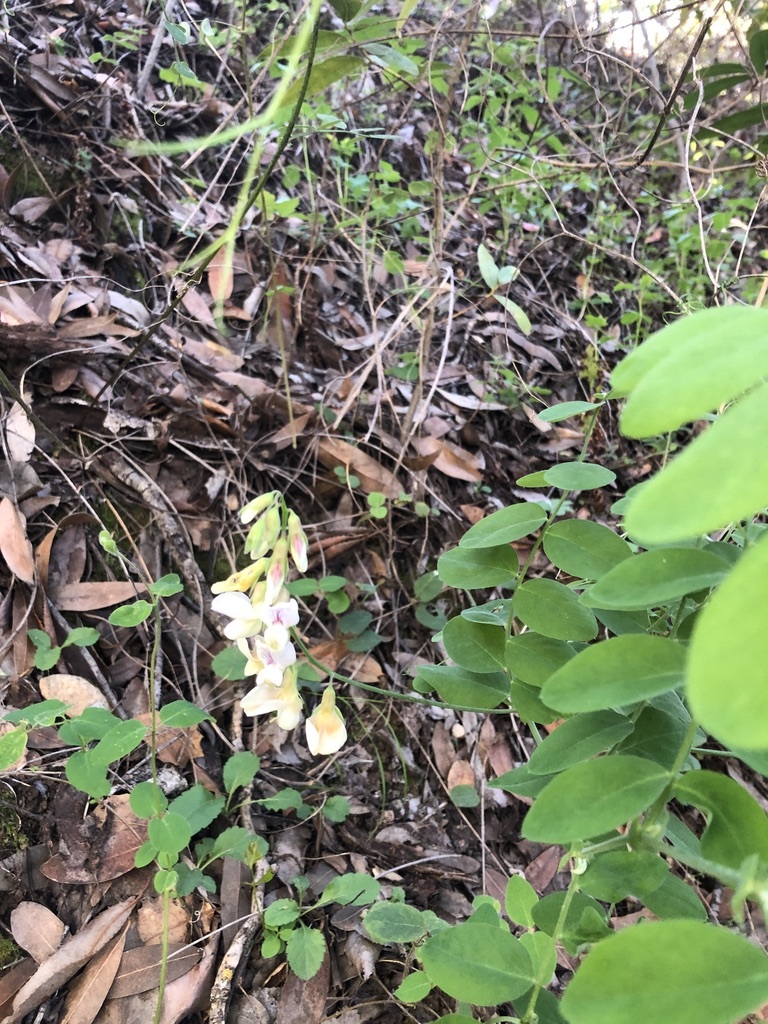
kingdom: Plantae
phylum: Tracheophyta
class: Magnoliopsida
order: Fabales
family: Fabaceae
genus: Lathyrus
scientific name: Lathyrus vestitus
